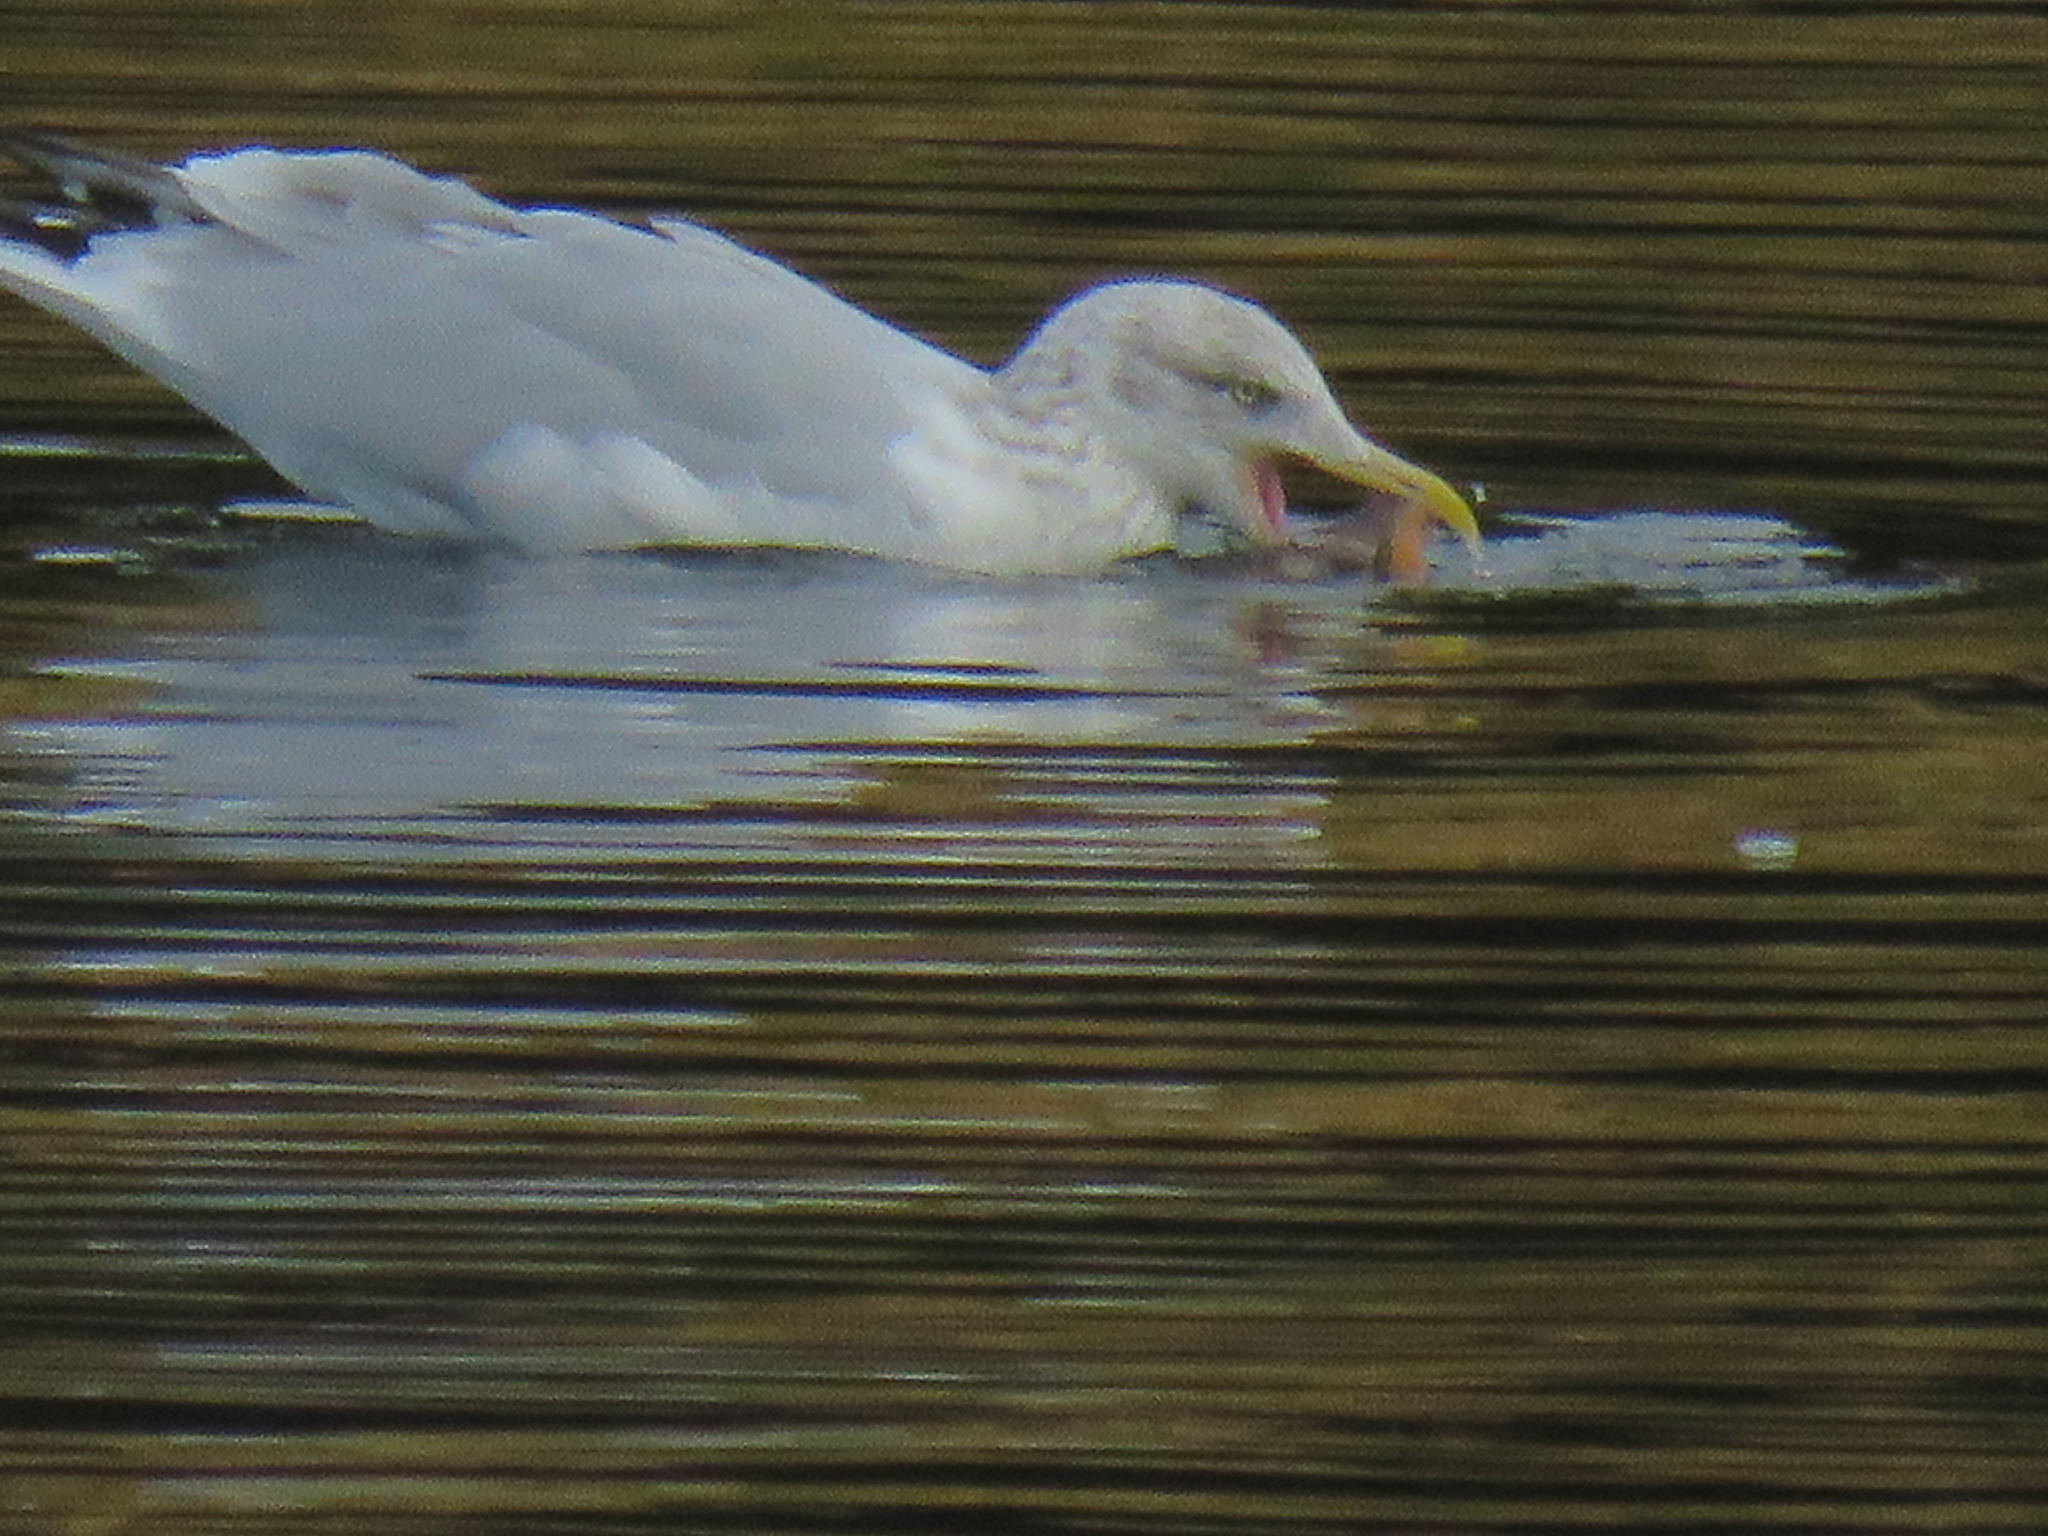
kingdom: Animalia
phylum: Chordata
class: Aves
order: Charadriiformes
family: Laridae
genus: Larus
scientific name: Larus argentatus
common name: Herring gull
